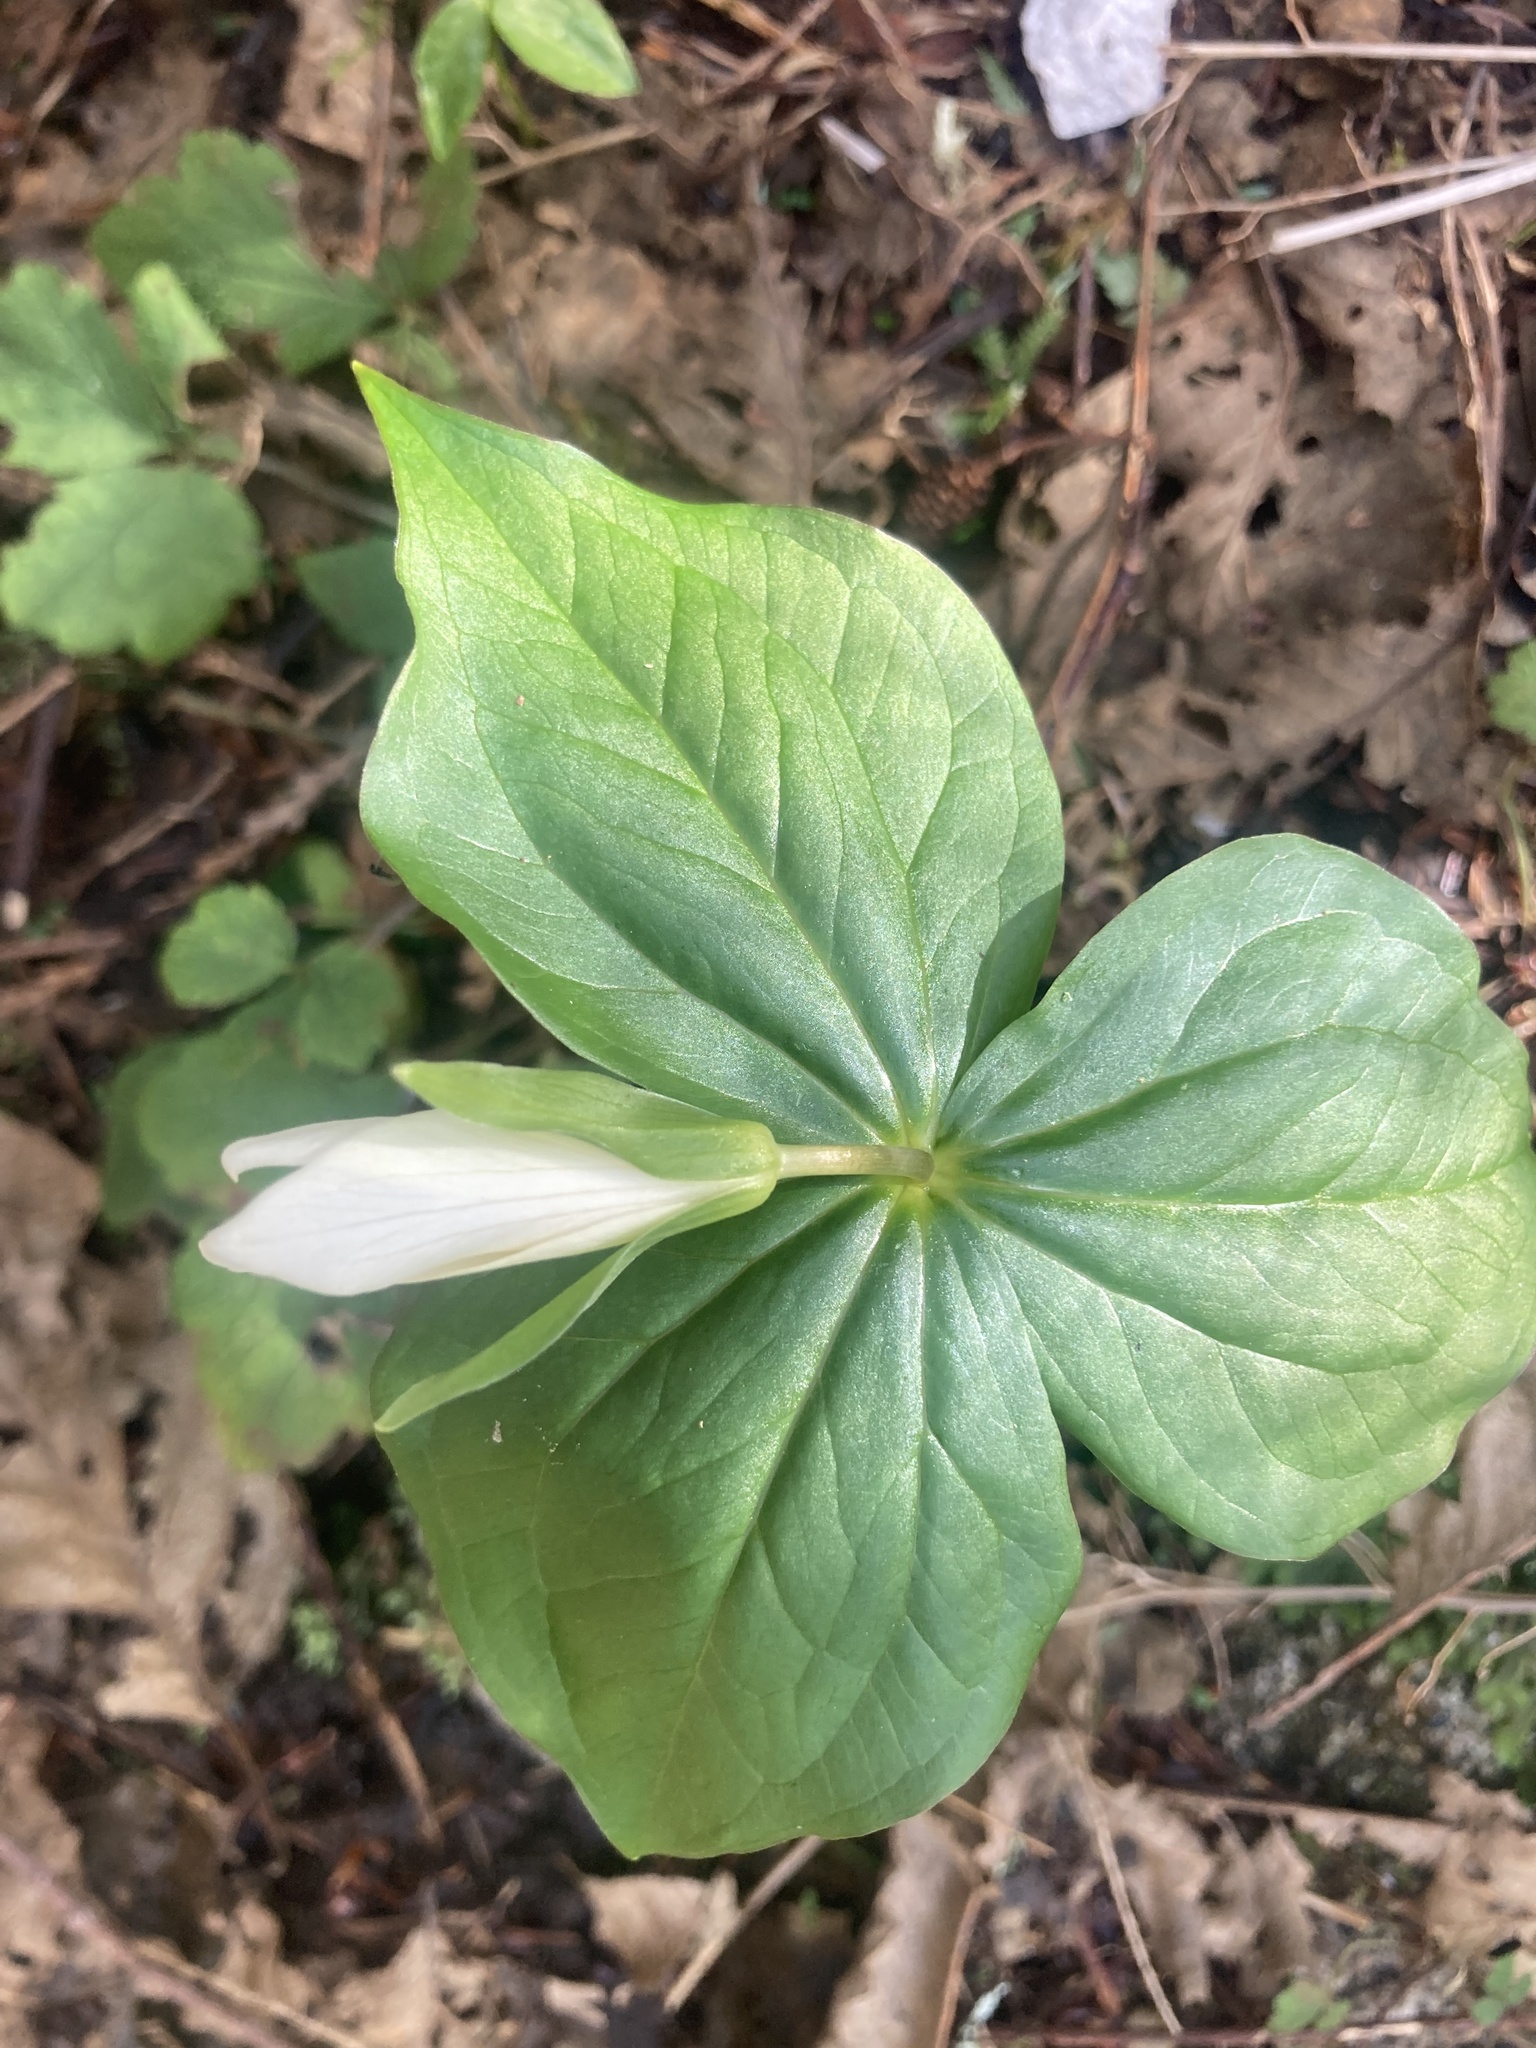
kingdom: Plantae
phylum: Tracheophyta
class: Liliopsida
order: Liliales
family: Melanthiaceae
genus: Trillium
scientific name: Trillium ovatum
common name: Pacific trillium
